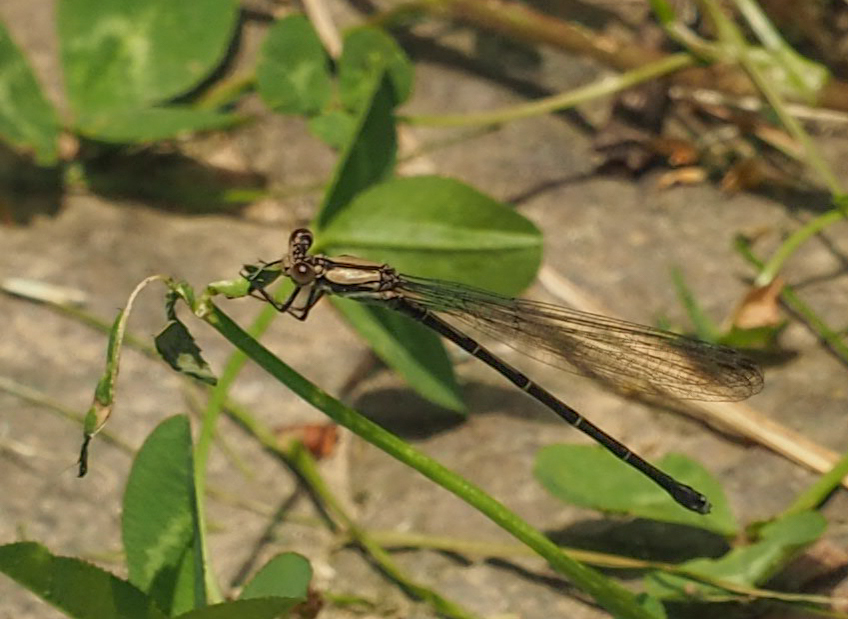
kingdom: Animalia
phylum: Arthropoda
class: Insecta
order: Odonata
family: Coenagrionidae
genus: Argia
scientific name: Argia tibialis
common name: Blue-tipped dancer
